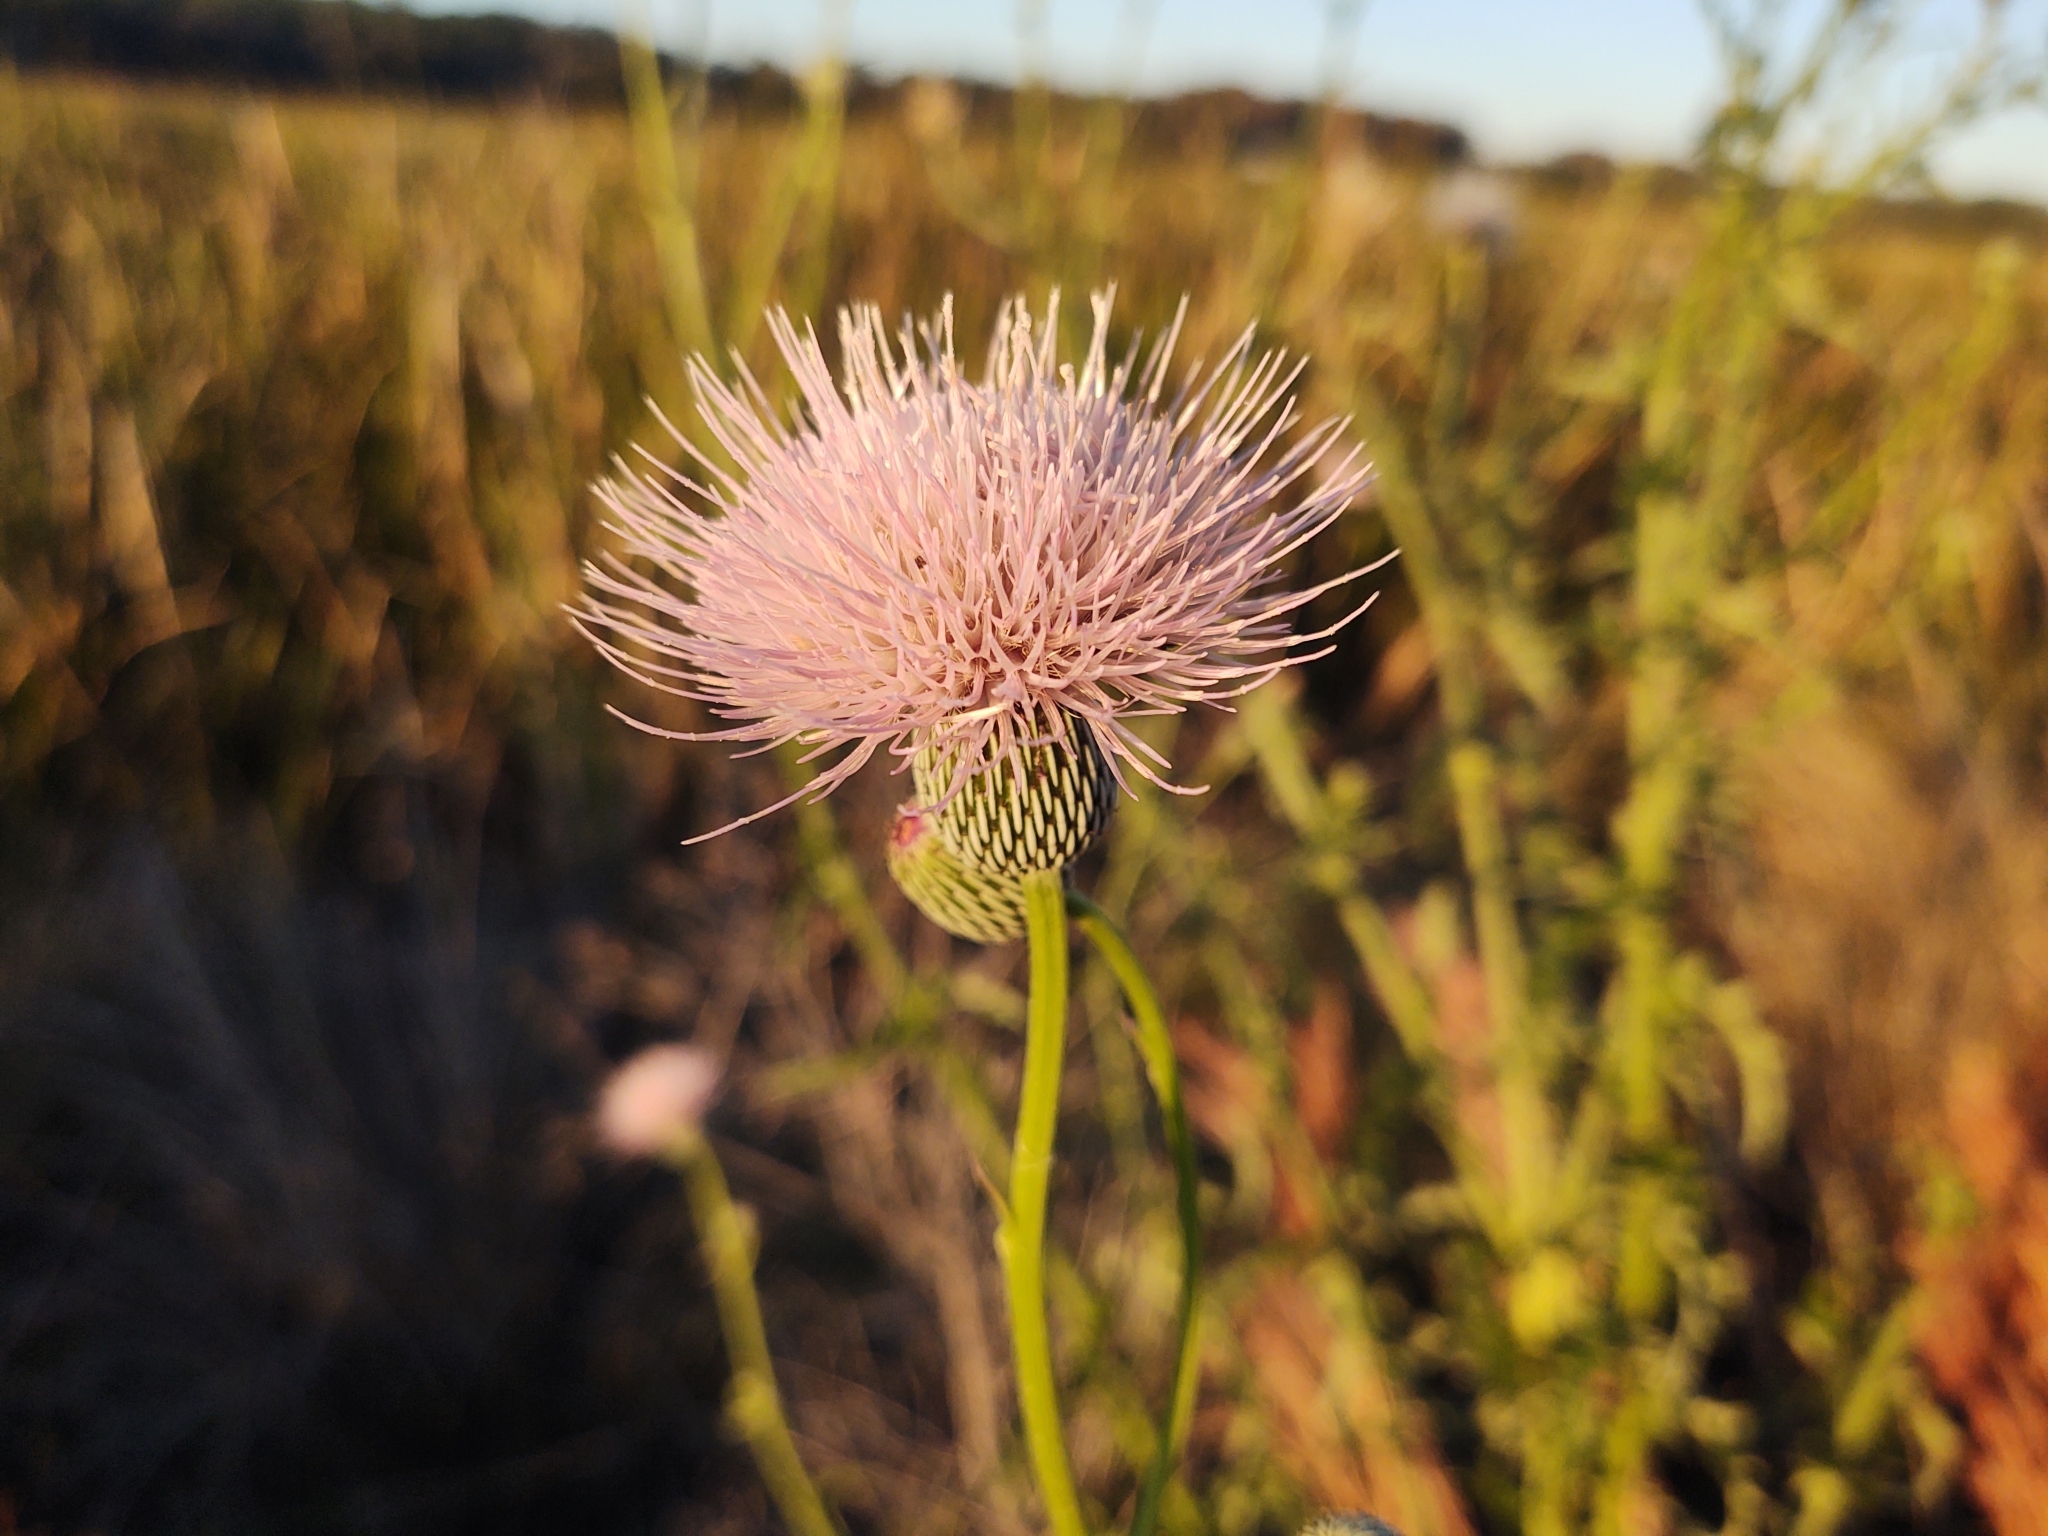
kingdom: Plantae
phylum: Tracheophyta
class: Magnoliopsida
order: Asterales
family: Asteraceae
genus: Cirsium
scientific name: Cirsium nuttalii
